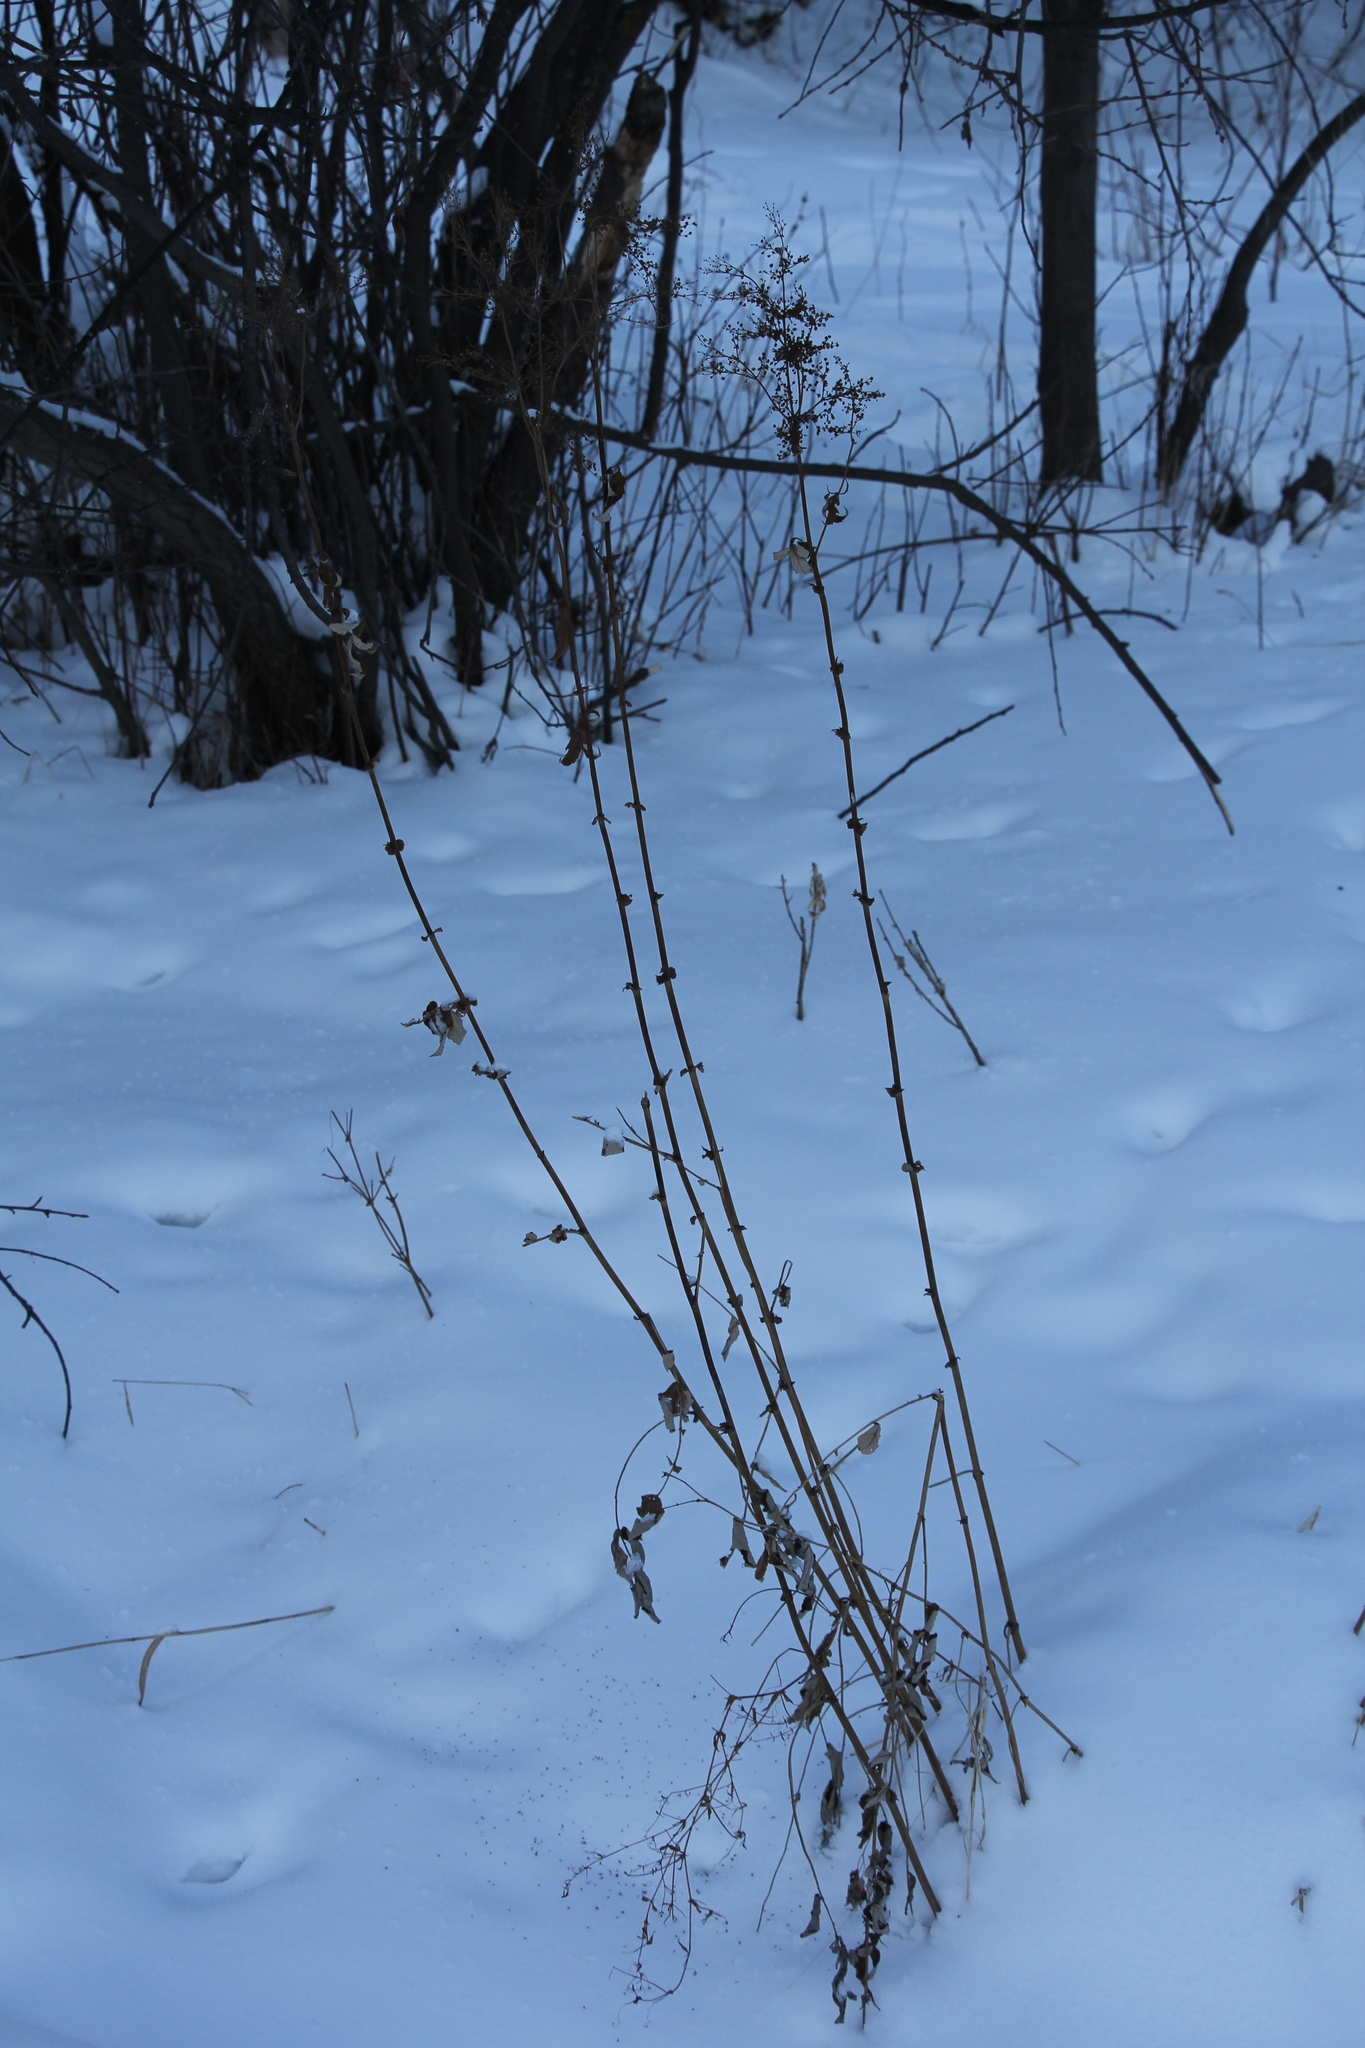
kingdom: Plantae
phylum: Tracheophyta
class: Magnoliopsida
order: Rosales
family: Rosaceae
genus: Filipendula
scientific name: Filipendula ulmaria
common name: Meadowsweet
